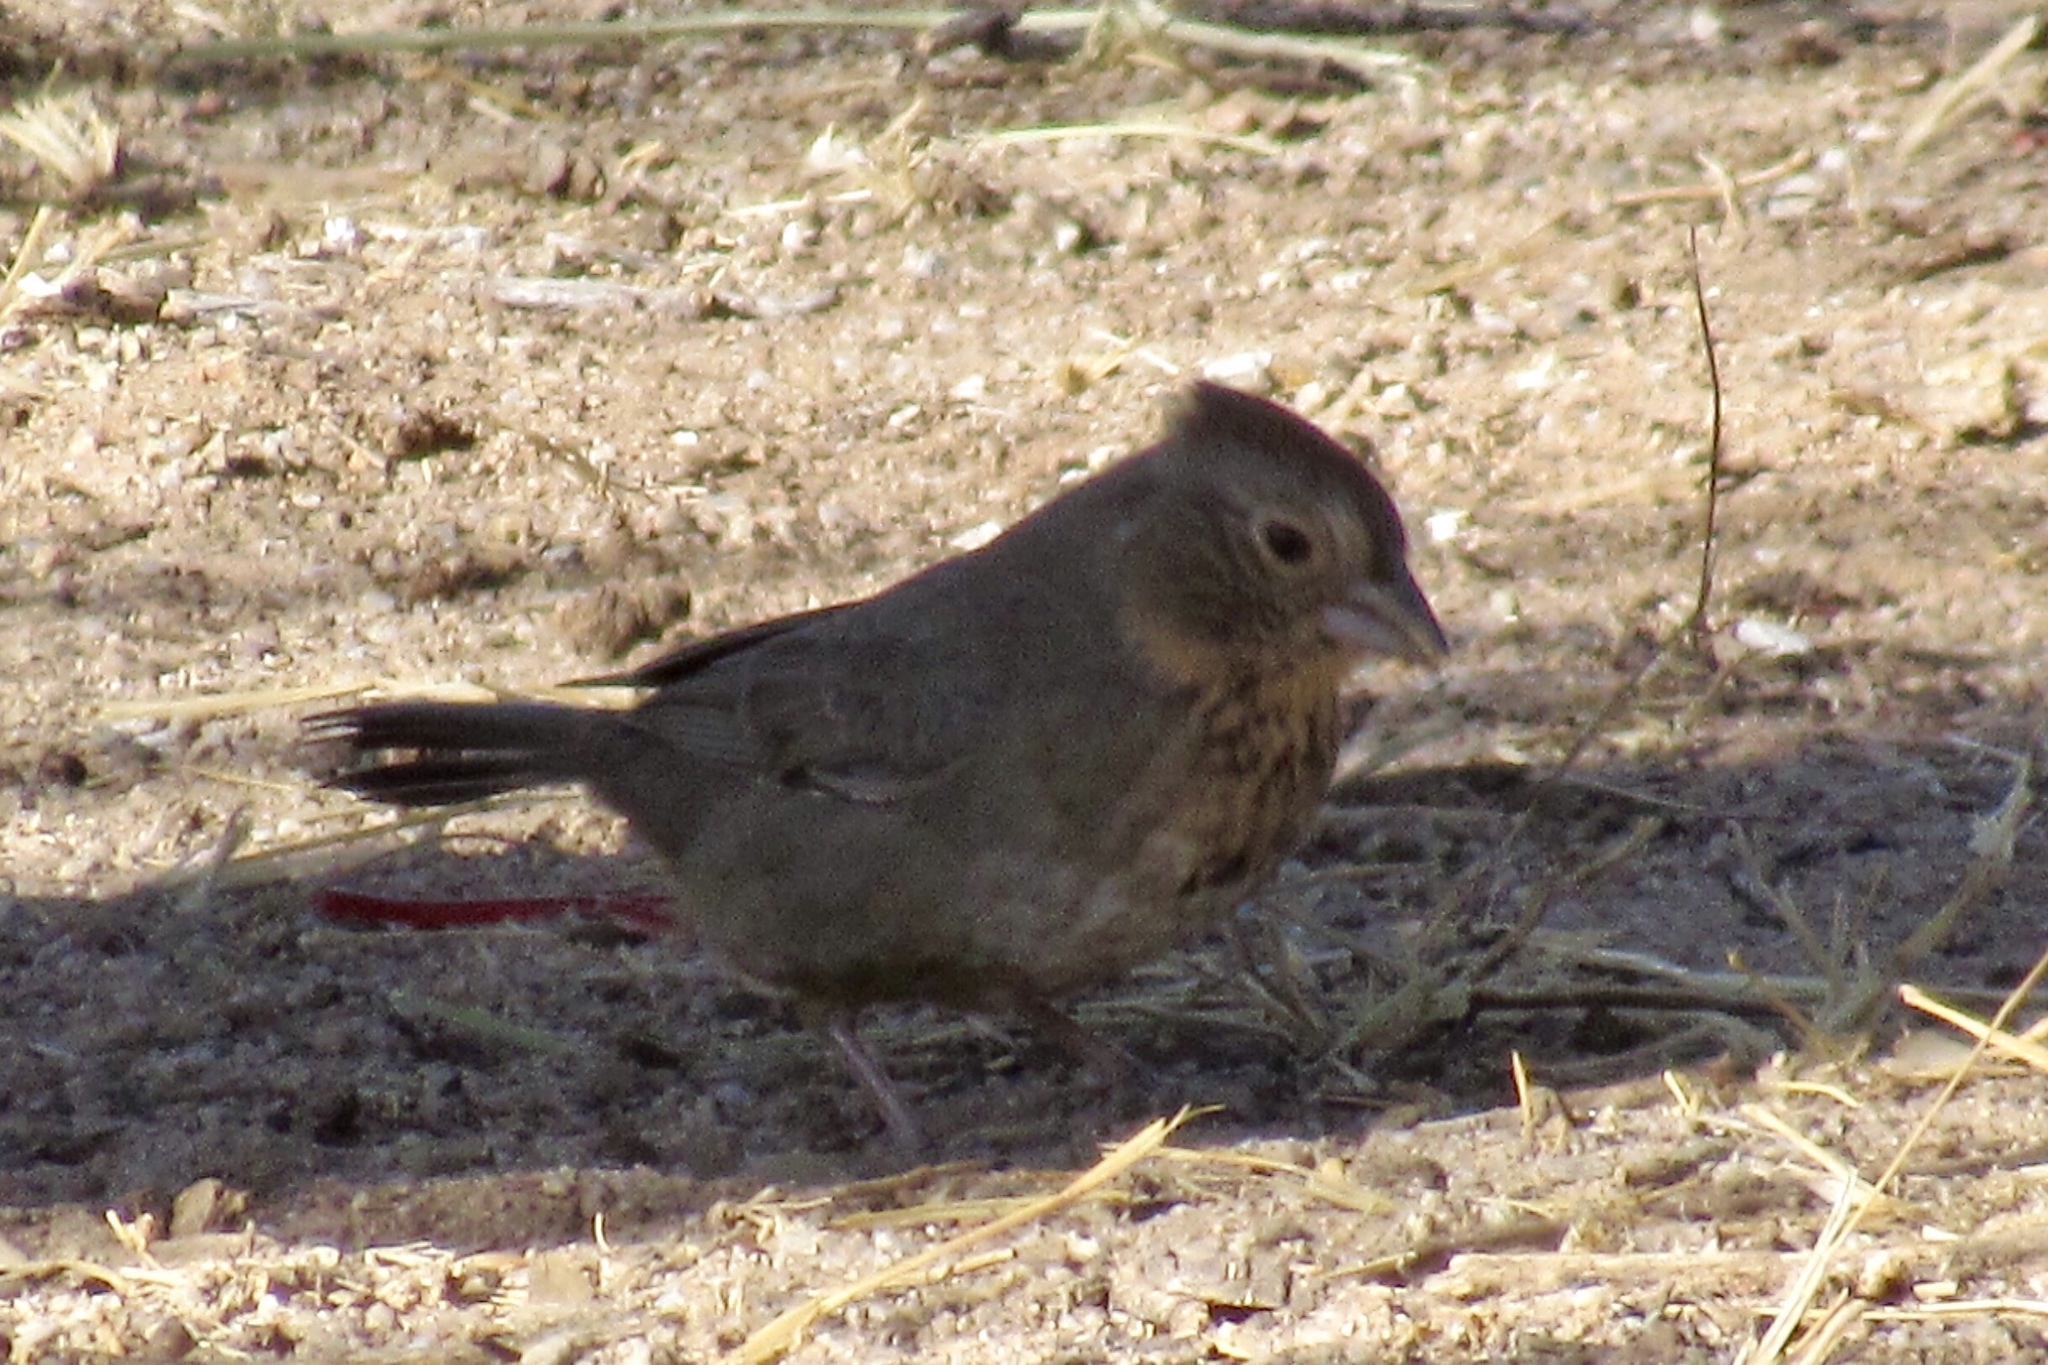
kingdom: Animalia
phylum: Chordata
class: Aves
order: Passeriformes
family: Passerellidae
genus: Melozone
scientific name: Melozone fusca
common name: Canyon towhee
